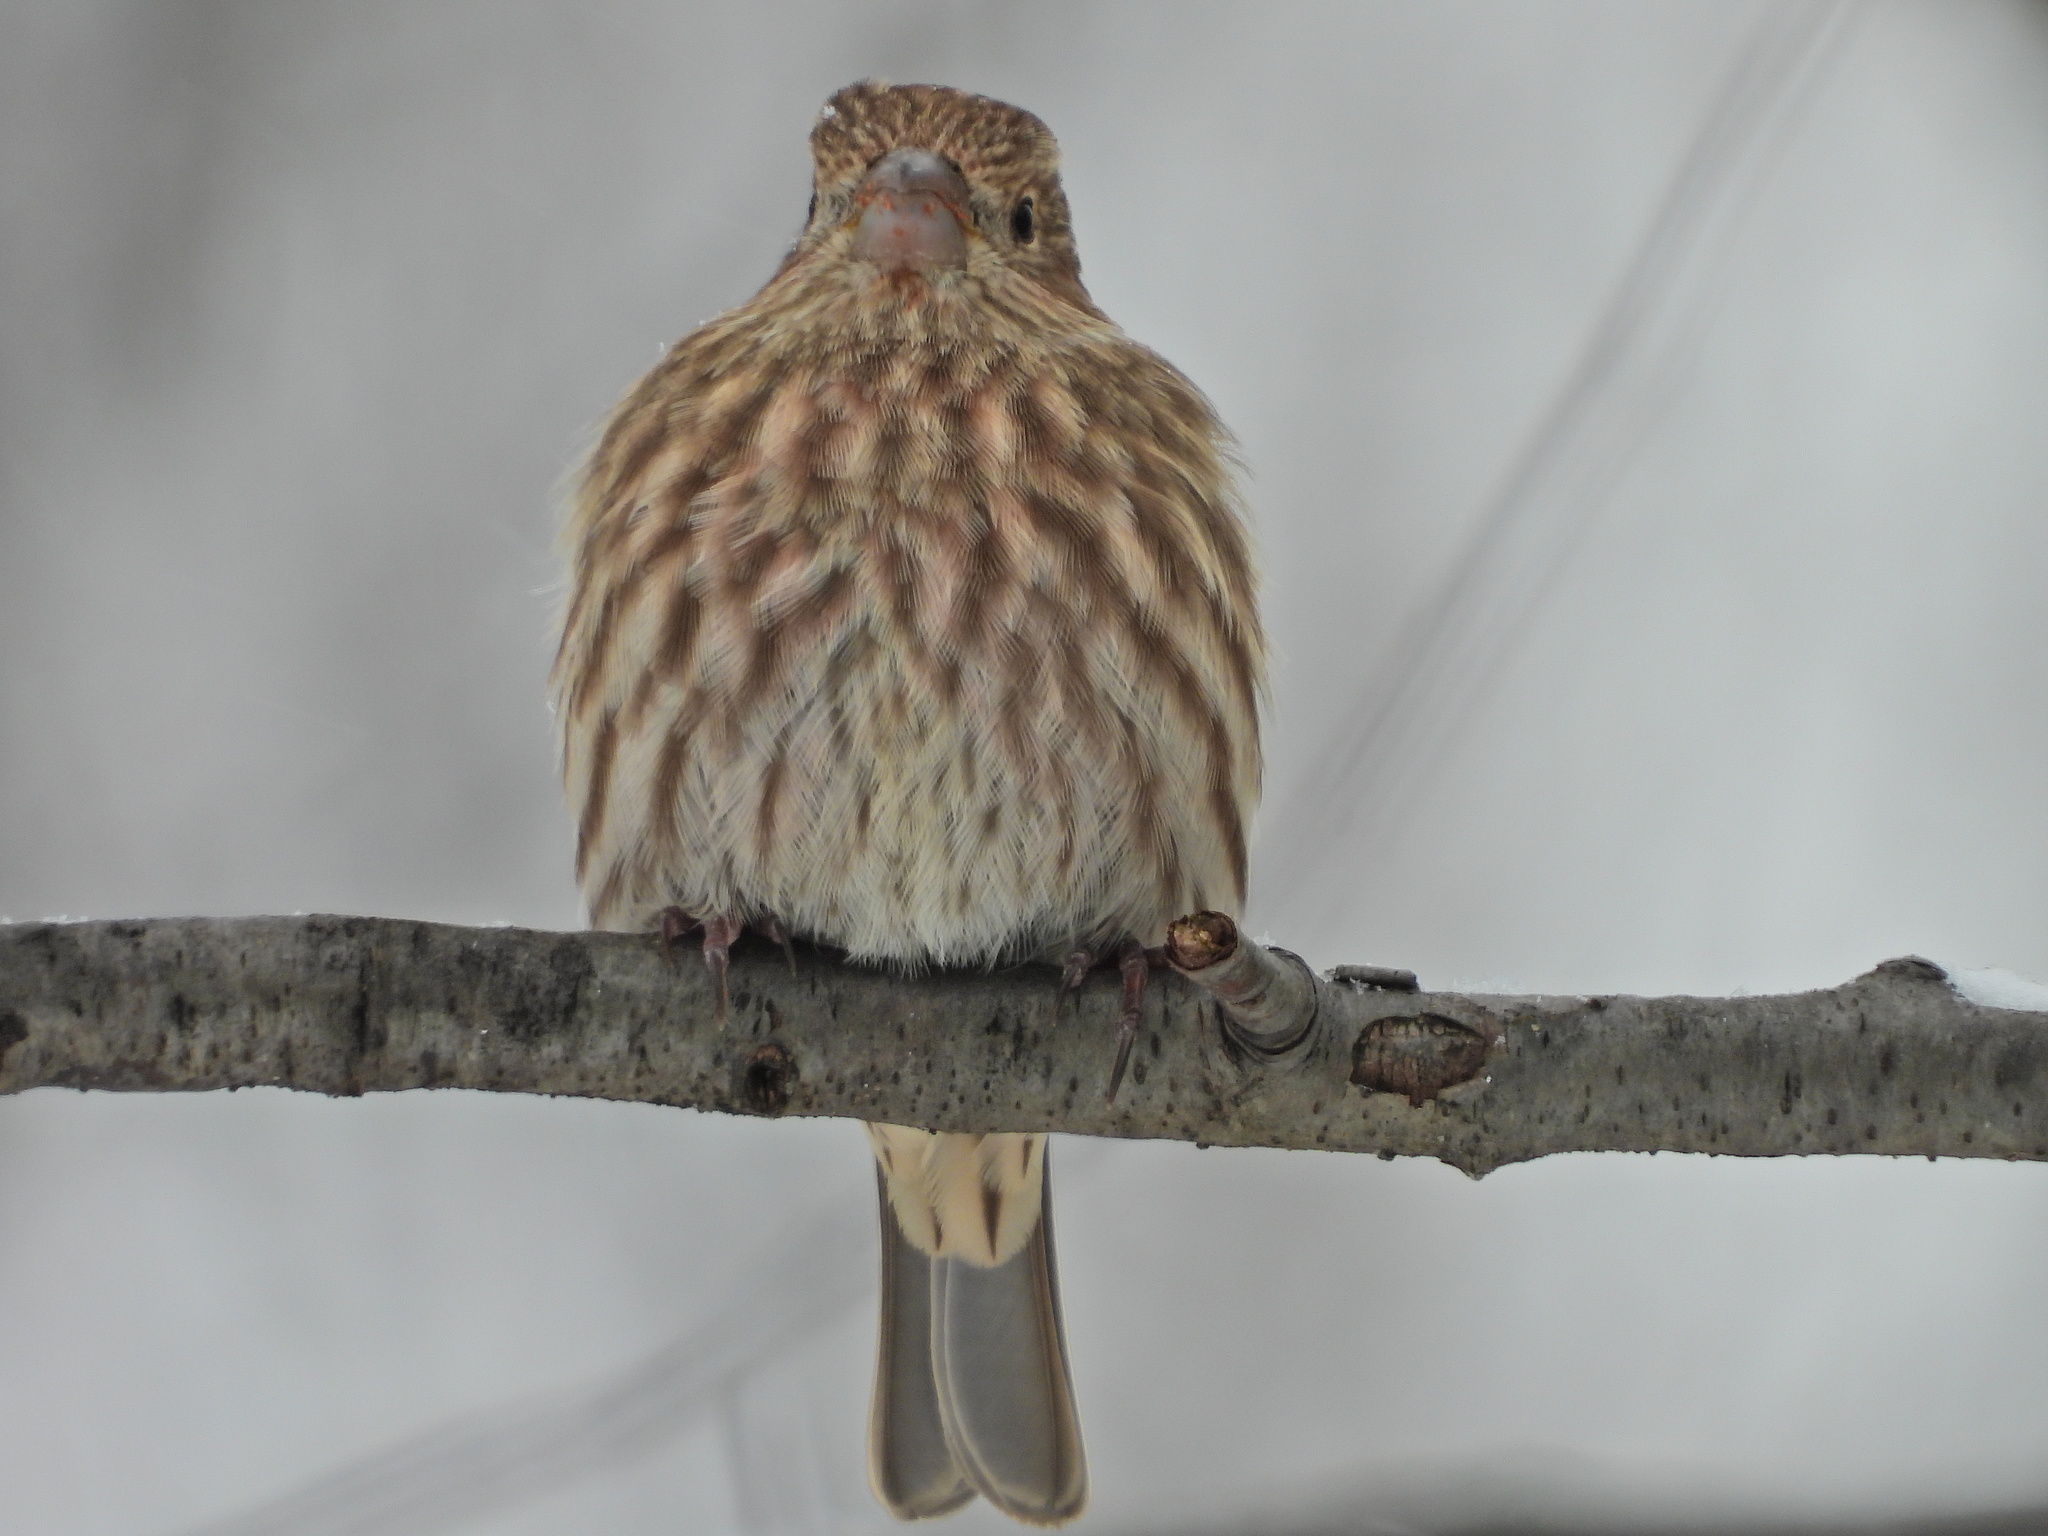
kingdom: Animalia
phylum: Chordata
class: Aves
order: Passeriformes
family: Fringillidae
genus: Haemorhous
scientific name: Haemorhous mexicanus
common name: House finch
